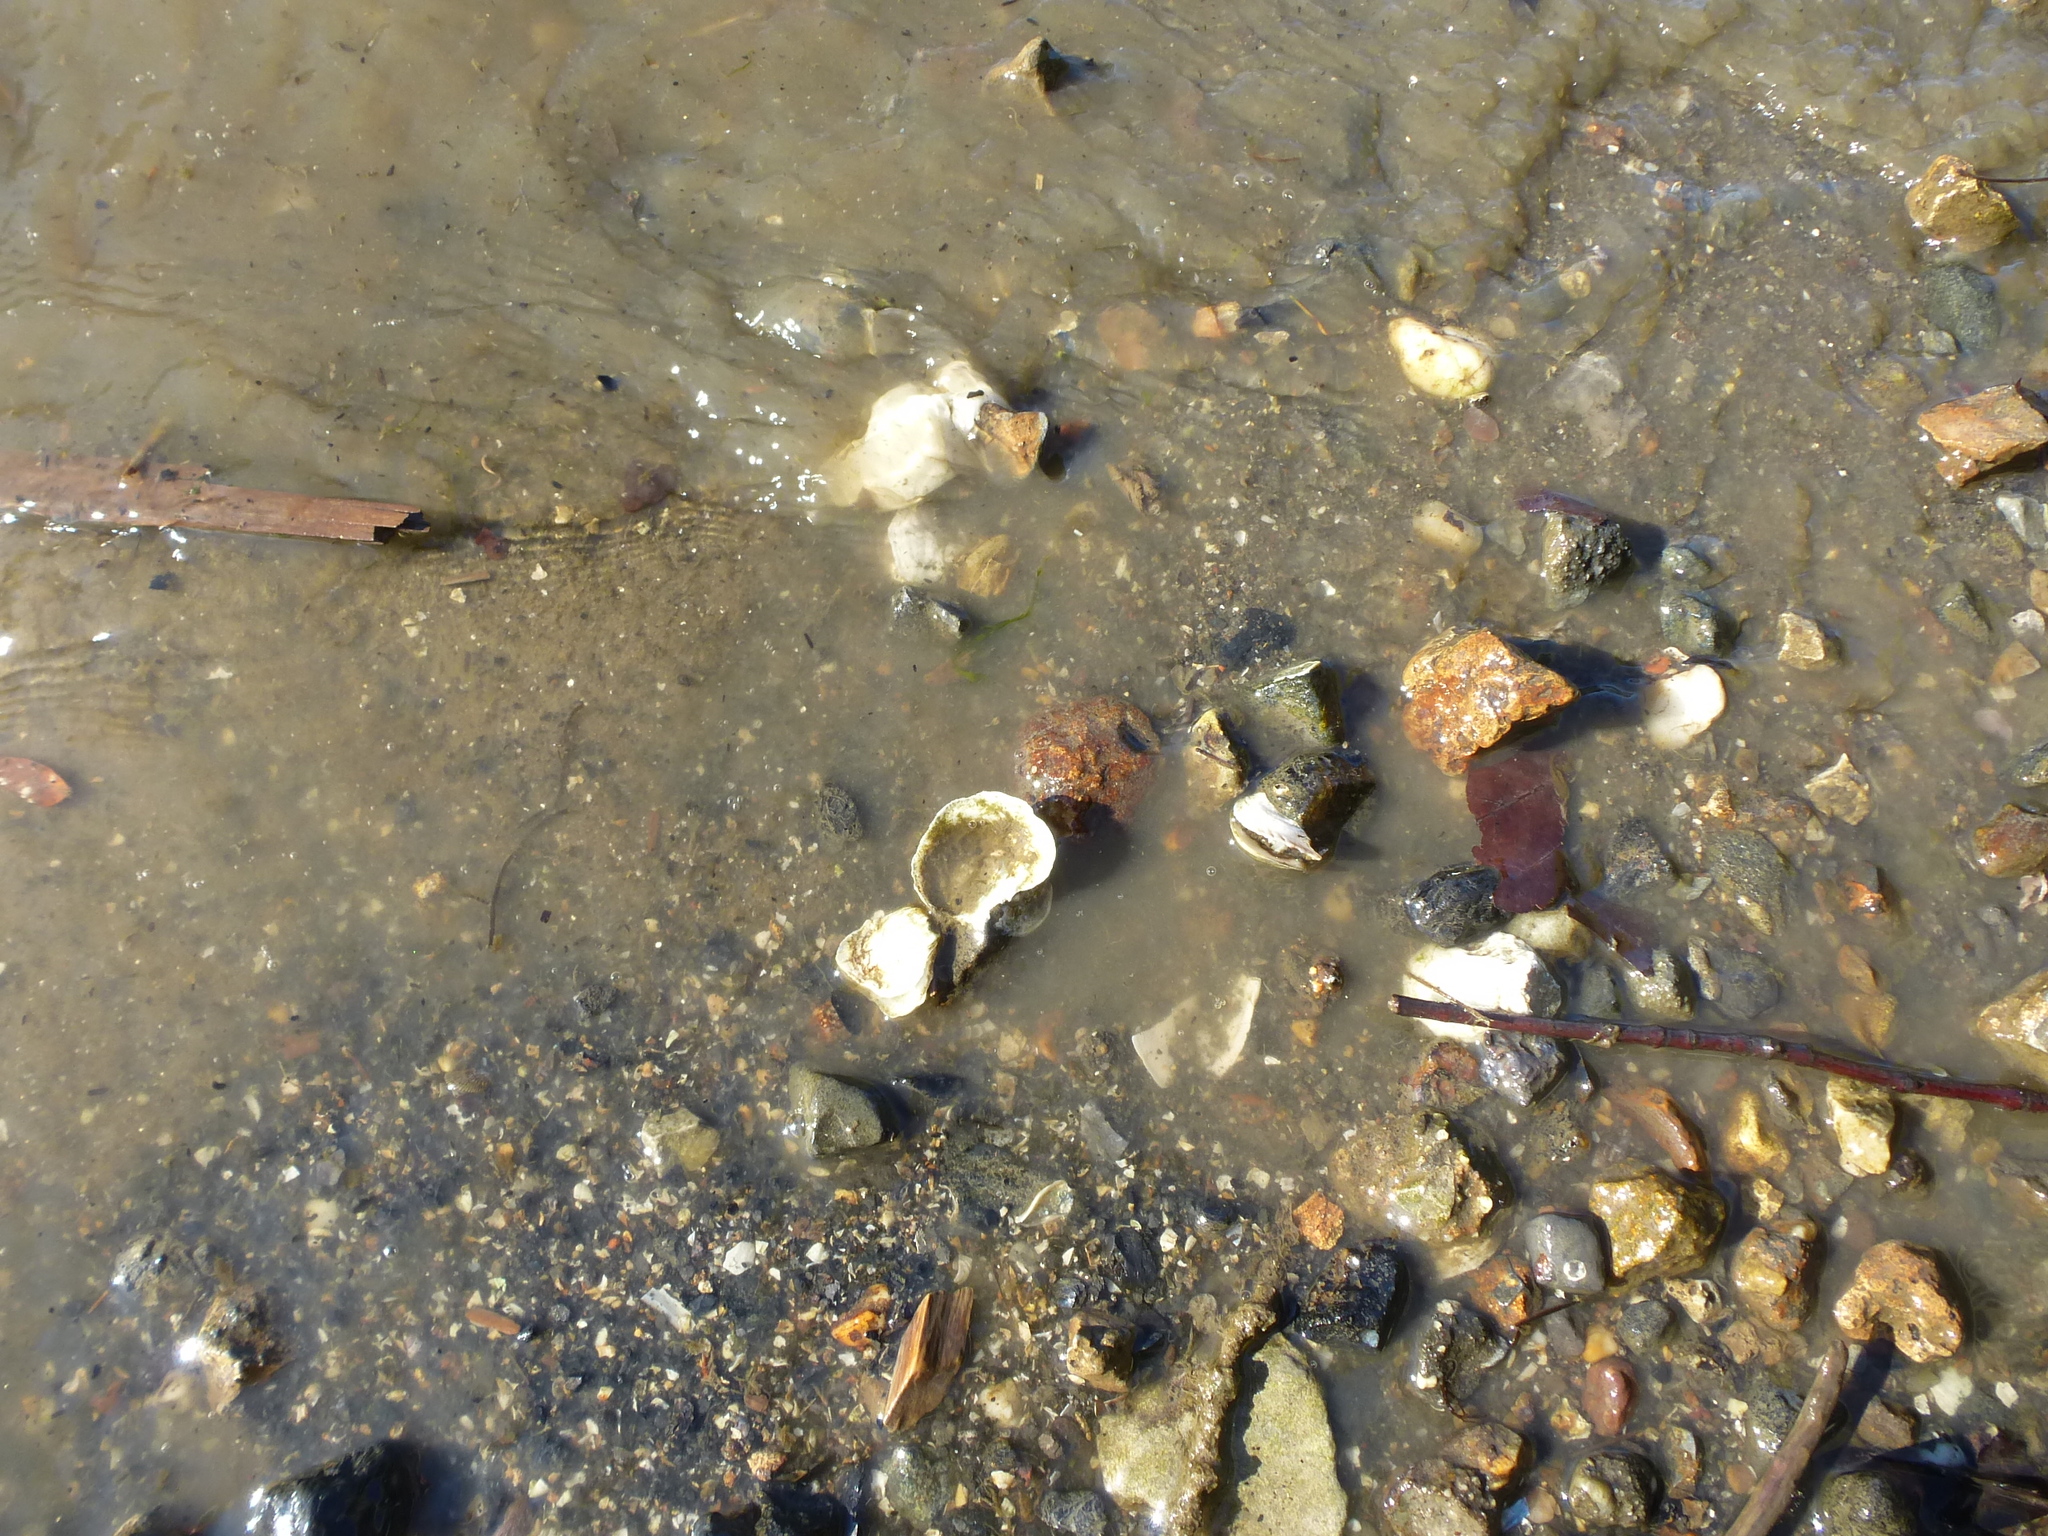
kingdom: Animalia
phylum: Mollusca
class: Bivalvia
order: Ostreida
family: Ostreidae
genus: Crassostrea
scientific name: Crassostrea virginica
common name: American oyster
